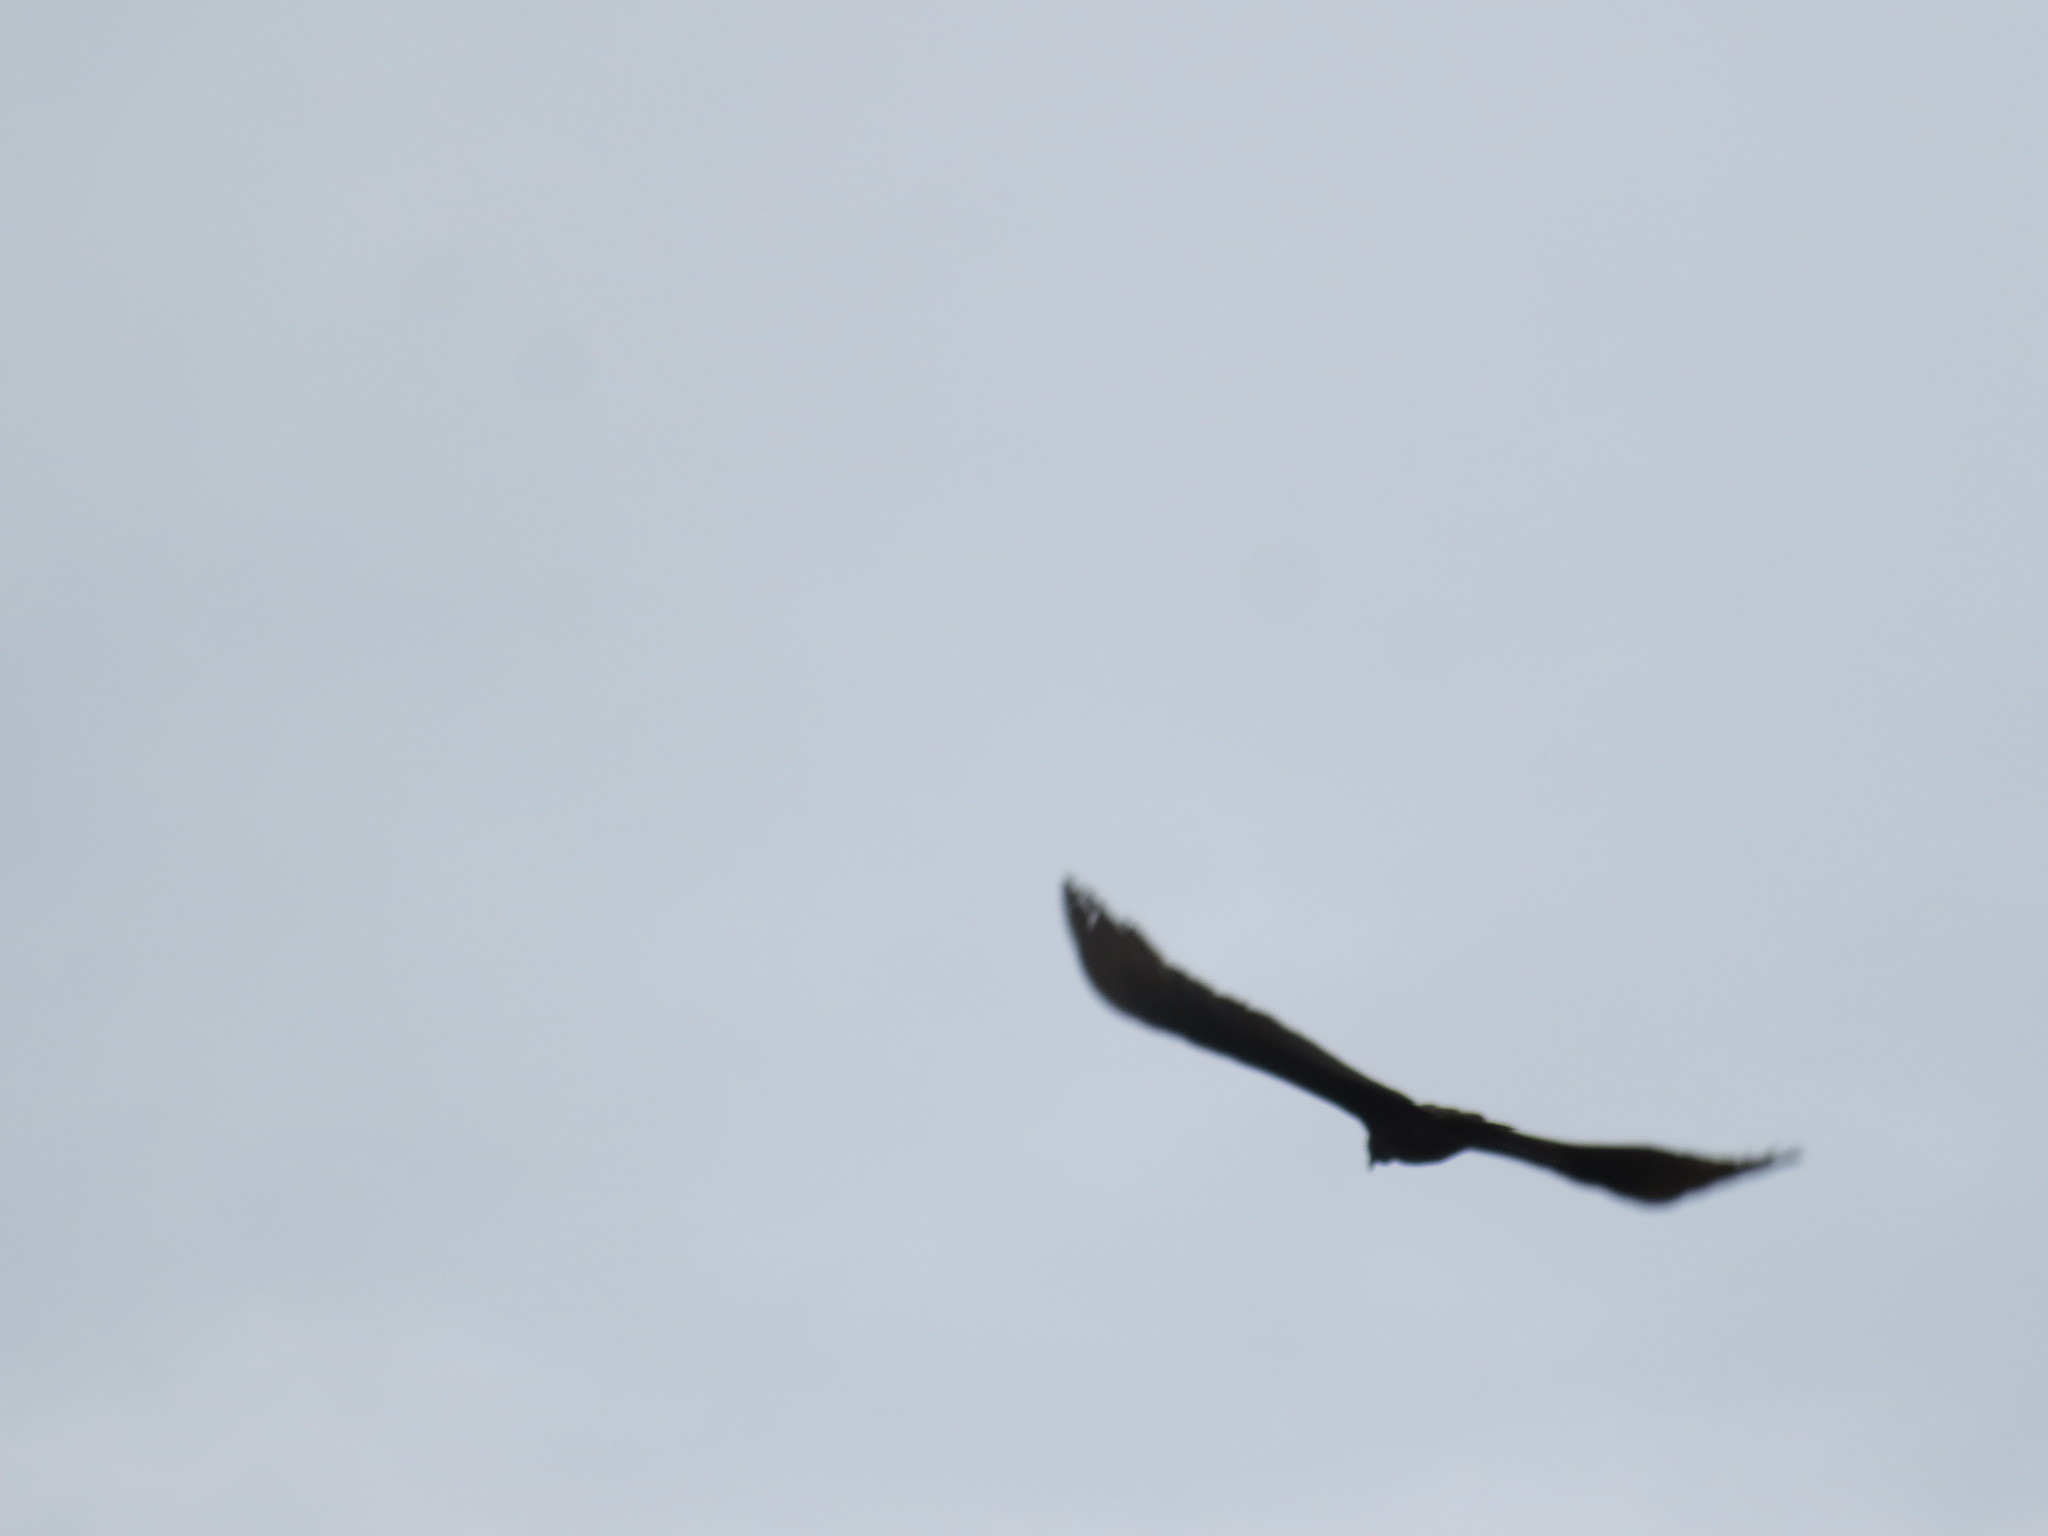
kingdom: Animalia
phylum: Chordata
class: Aves
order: Accipitriformes
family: Cathartidae
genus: Cathartes
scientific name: Cathartes aura
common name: Turkey vulture
